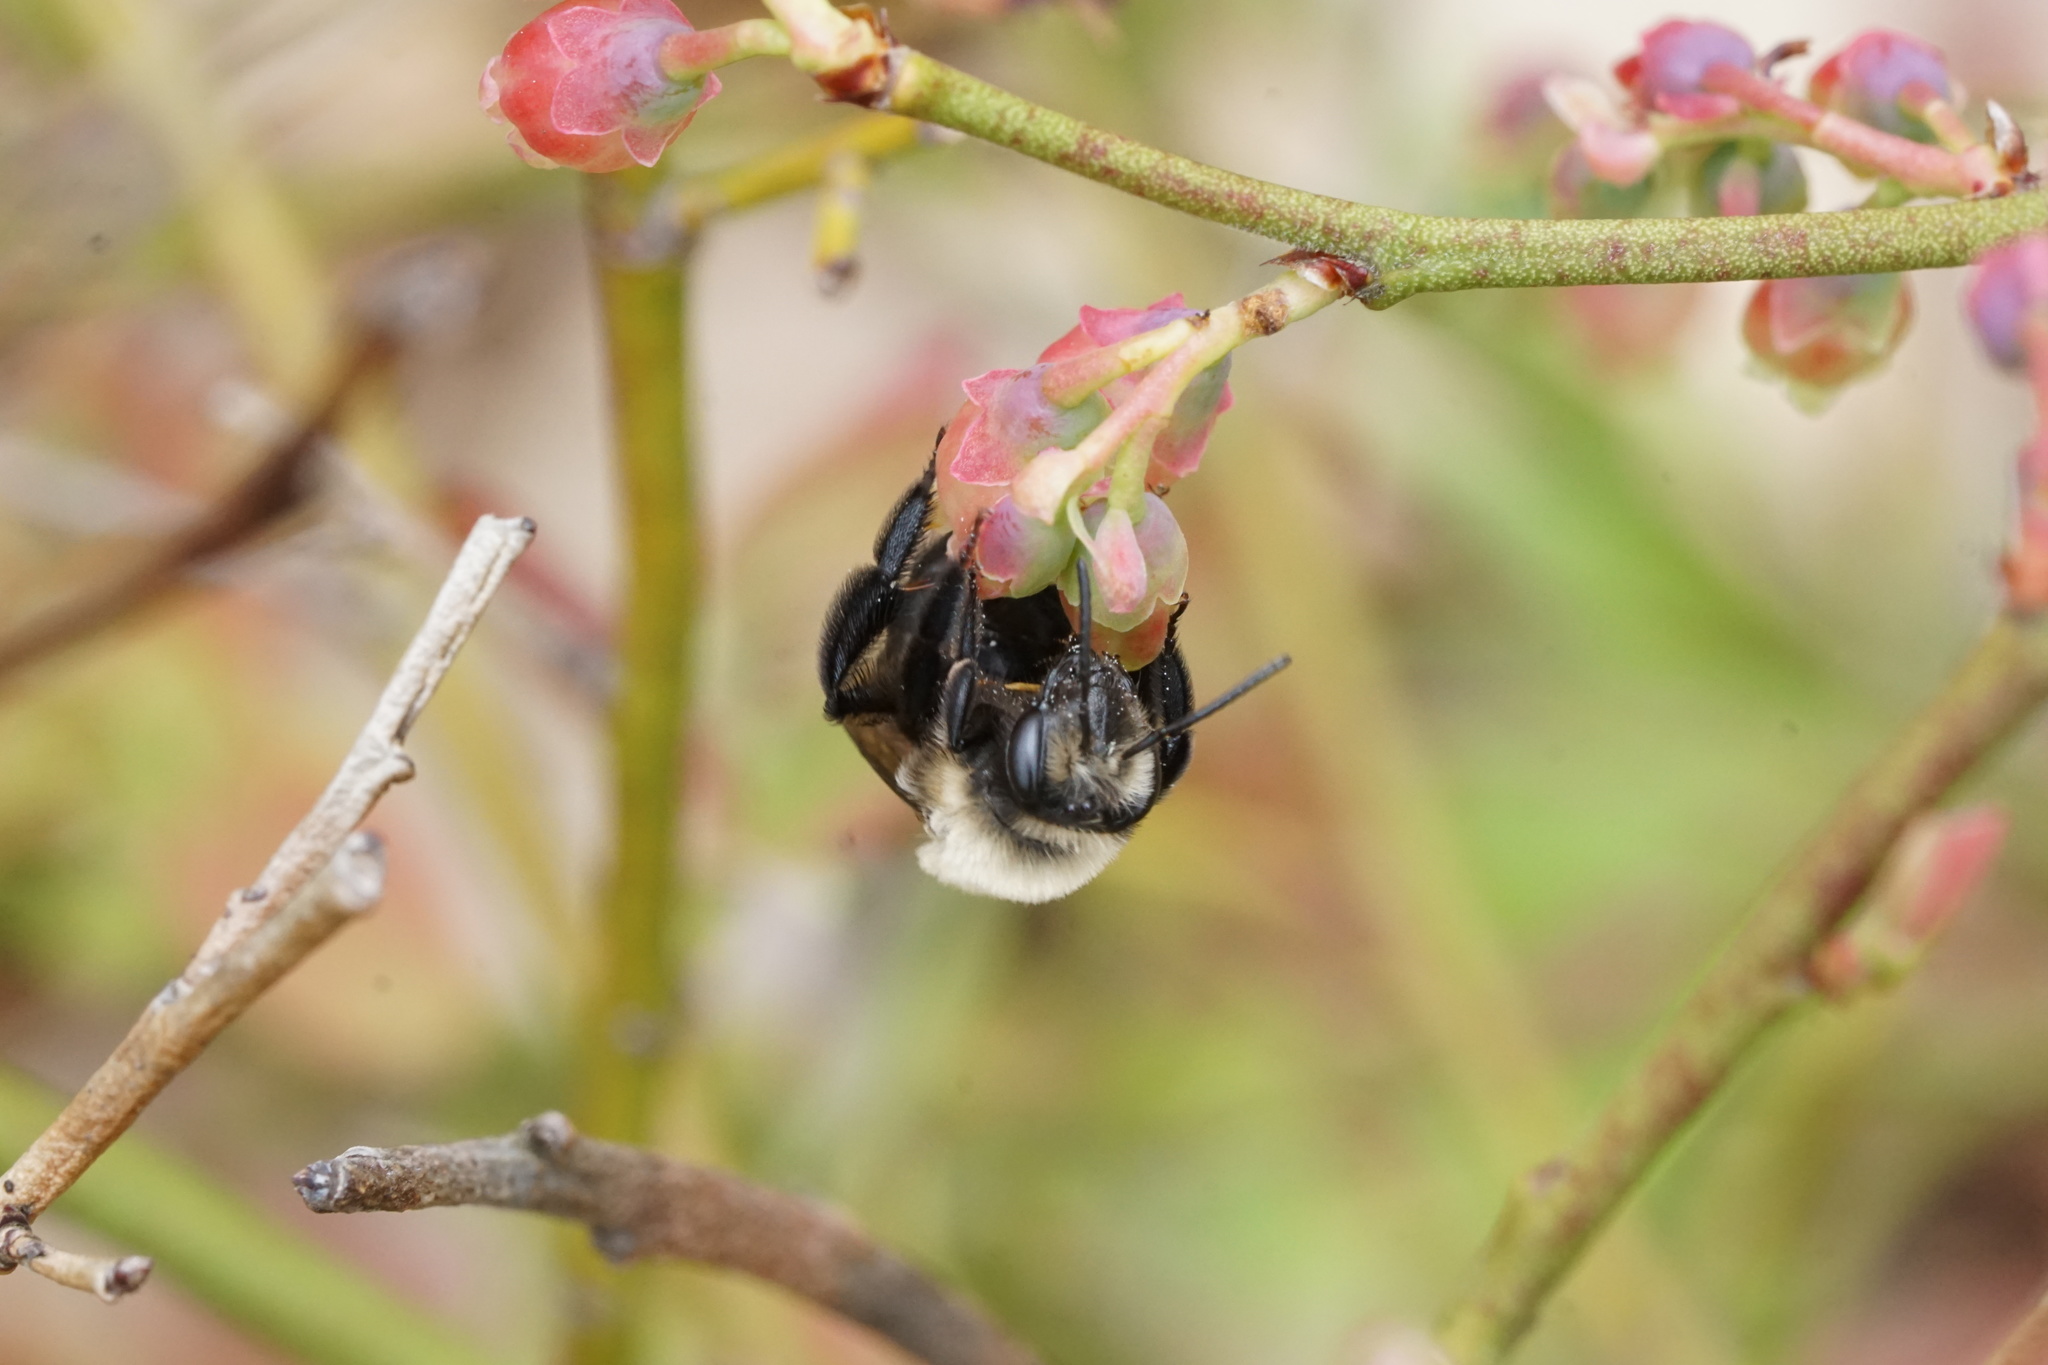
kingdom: Animalia
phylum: Arthropoda
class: Insecta
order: Hymenoptera
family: Andrenidae
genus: Andrena
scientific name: Andrena carlini
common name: Carlin's mining bee
